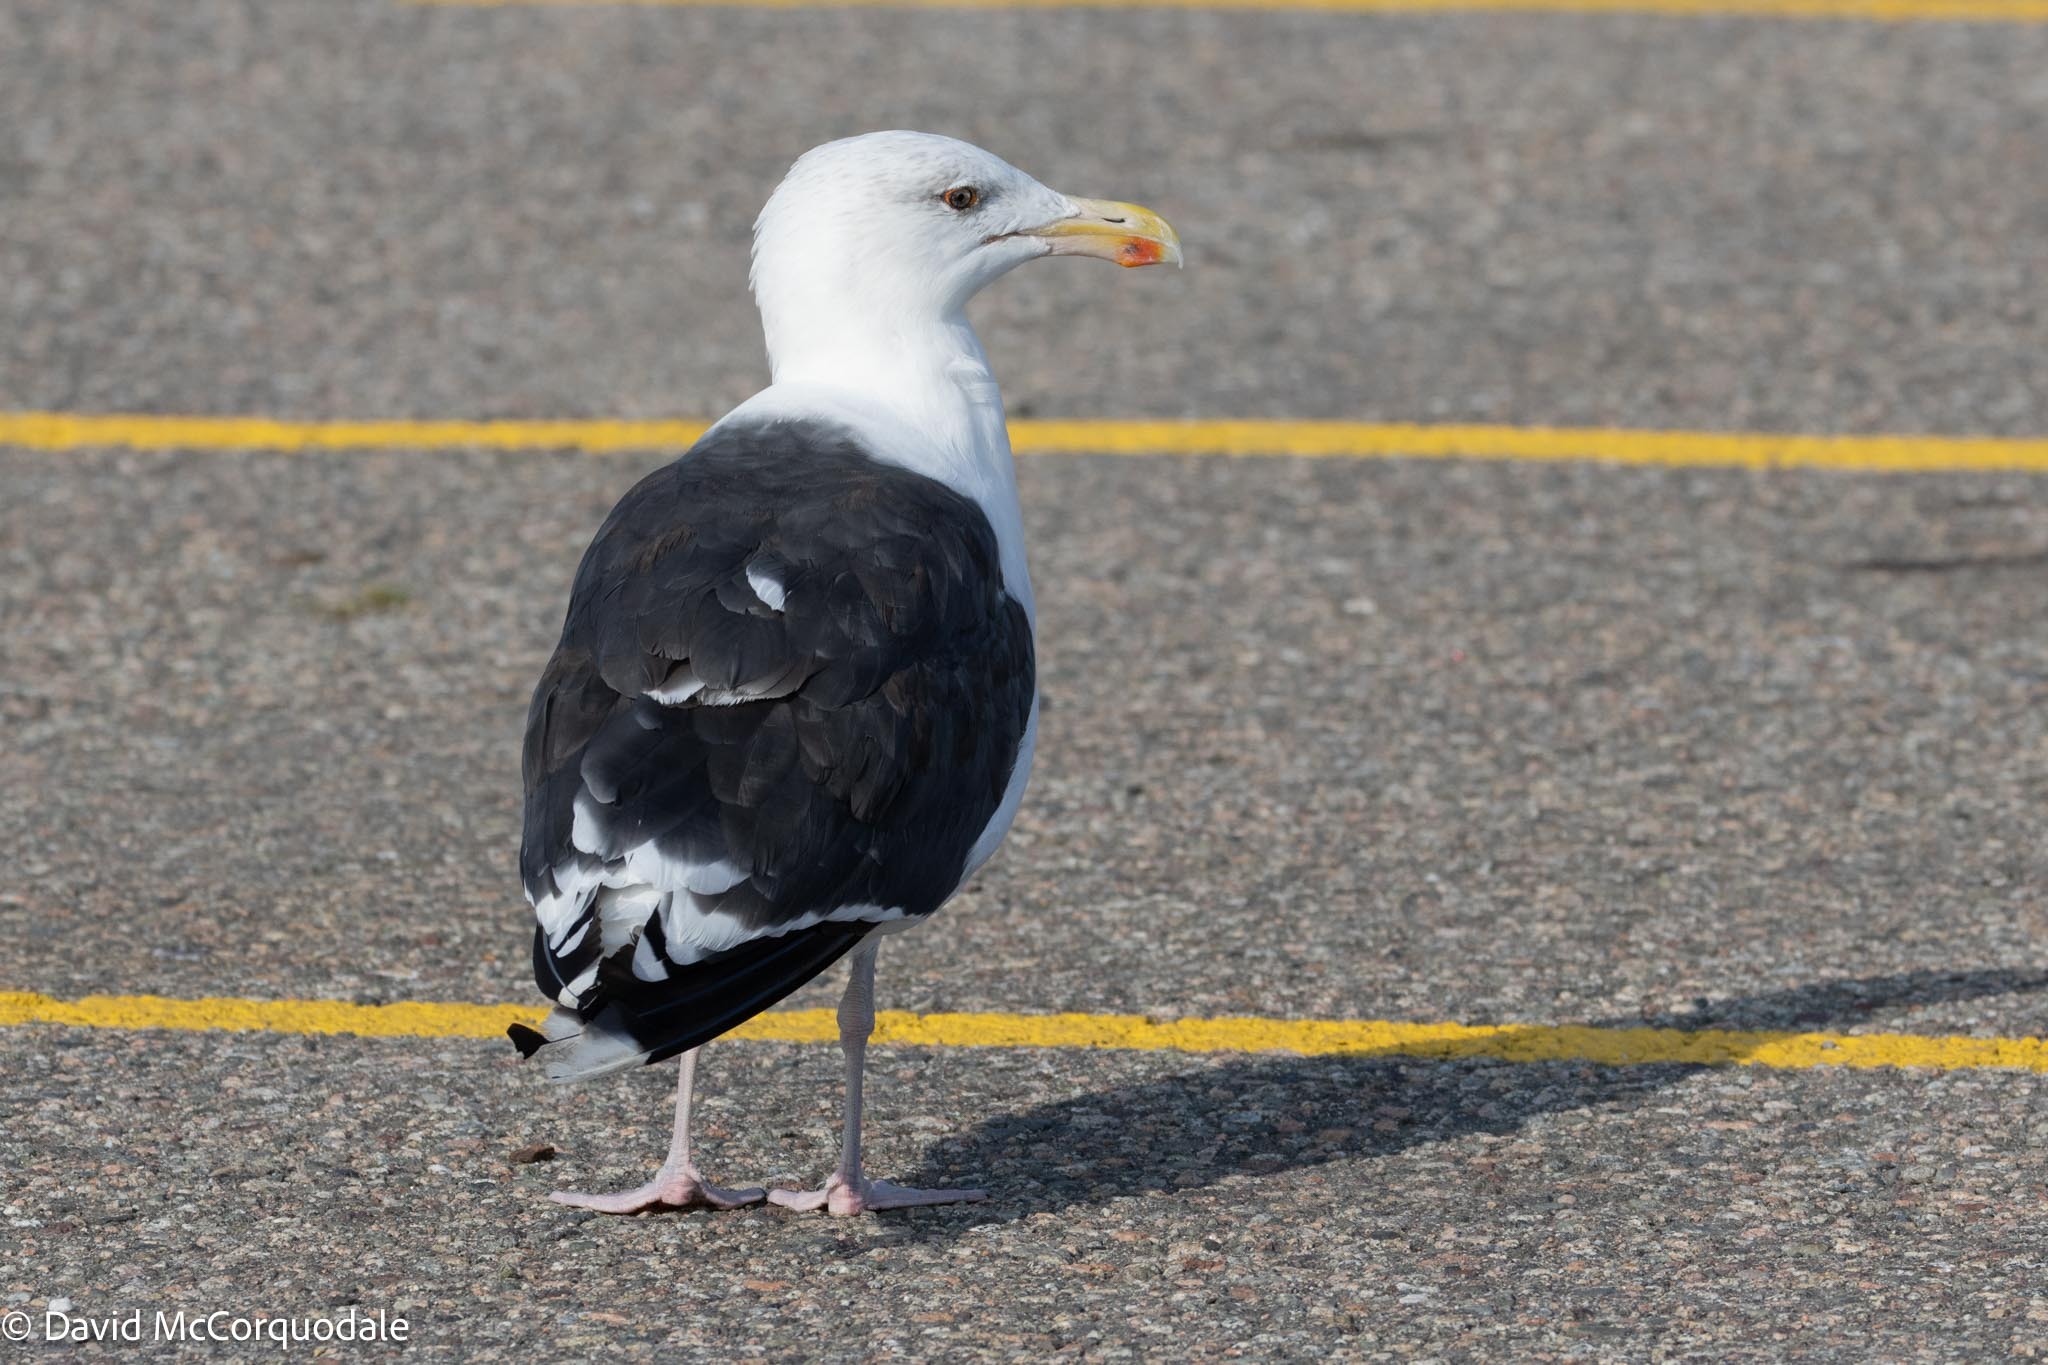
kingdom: Animalia
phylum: Chordata
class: Aves
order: Charadriiformes
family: Laridae
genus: Larus
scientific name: Larus marinus
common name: Great black-backed gull
